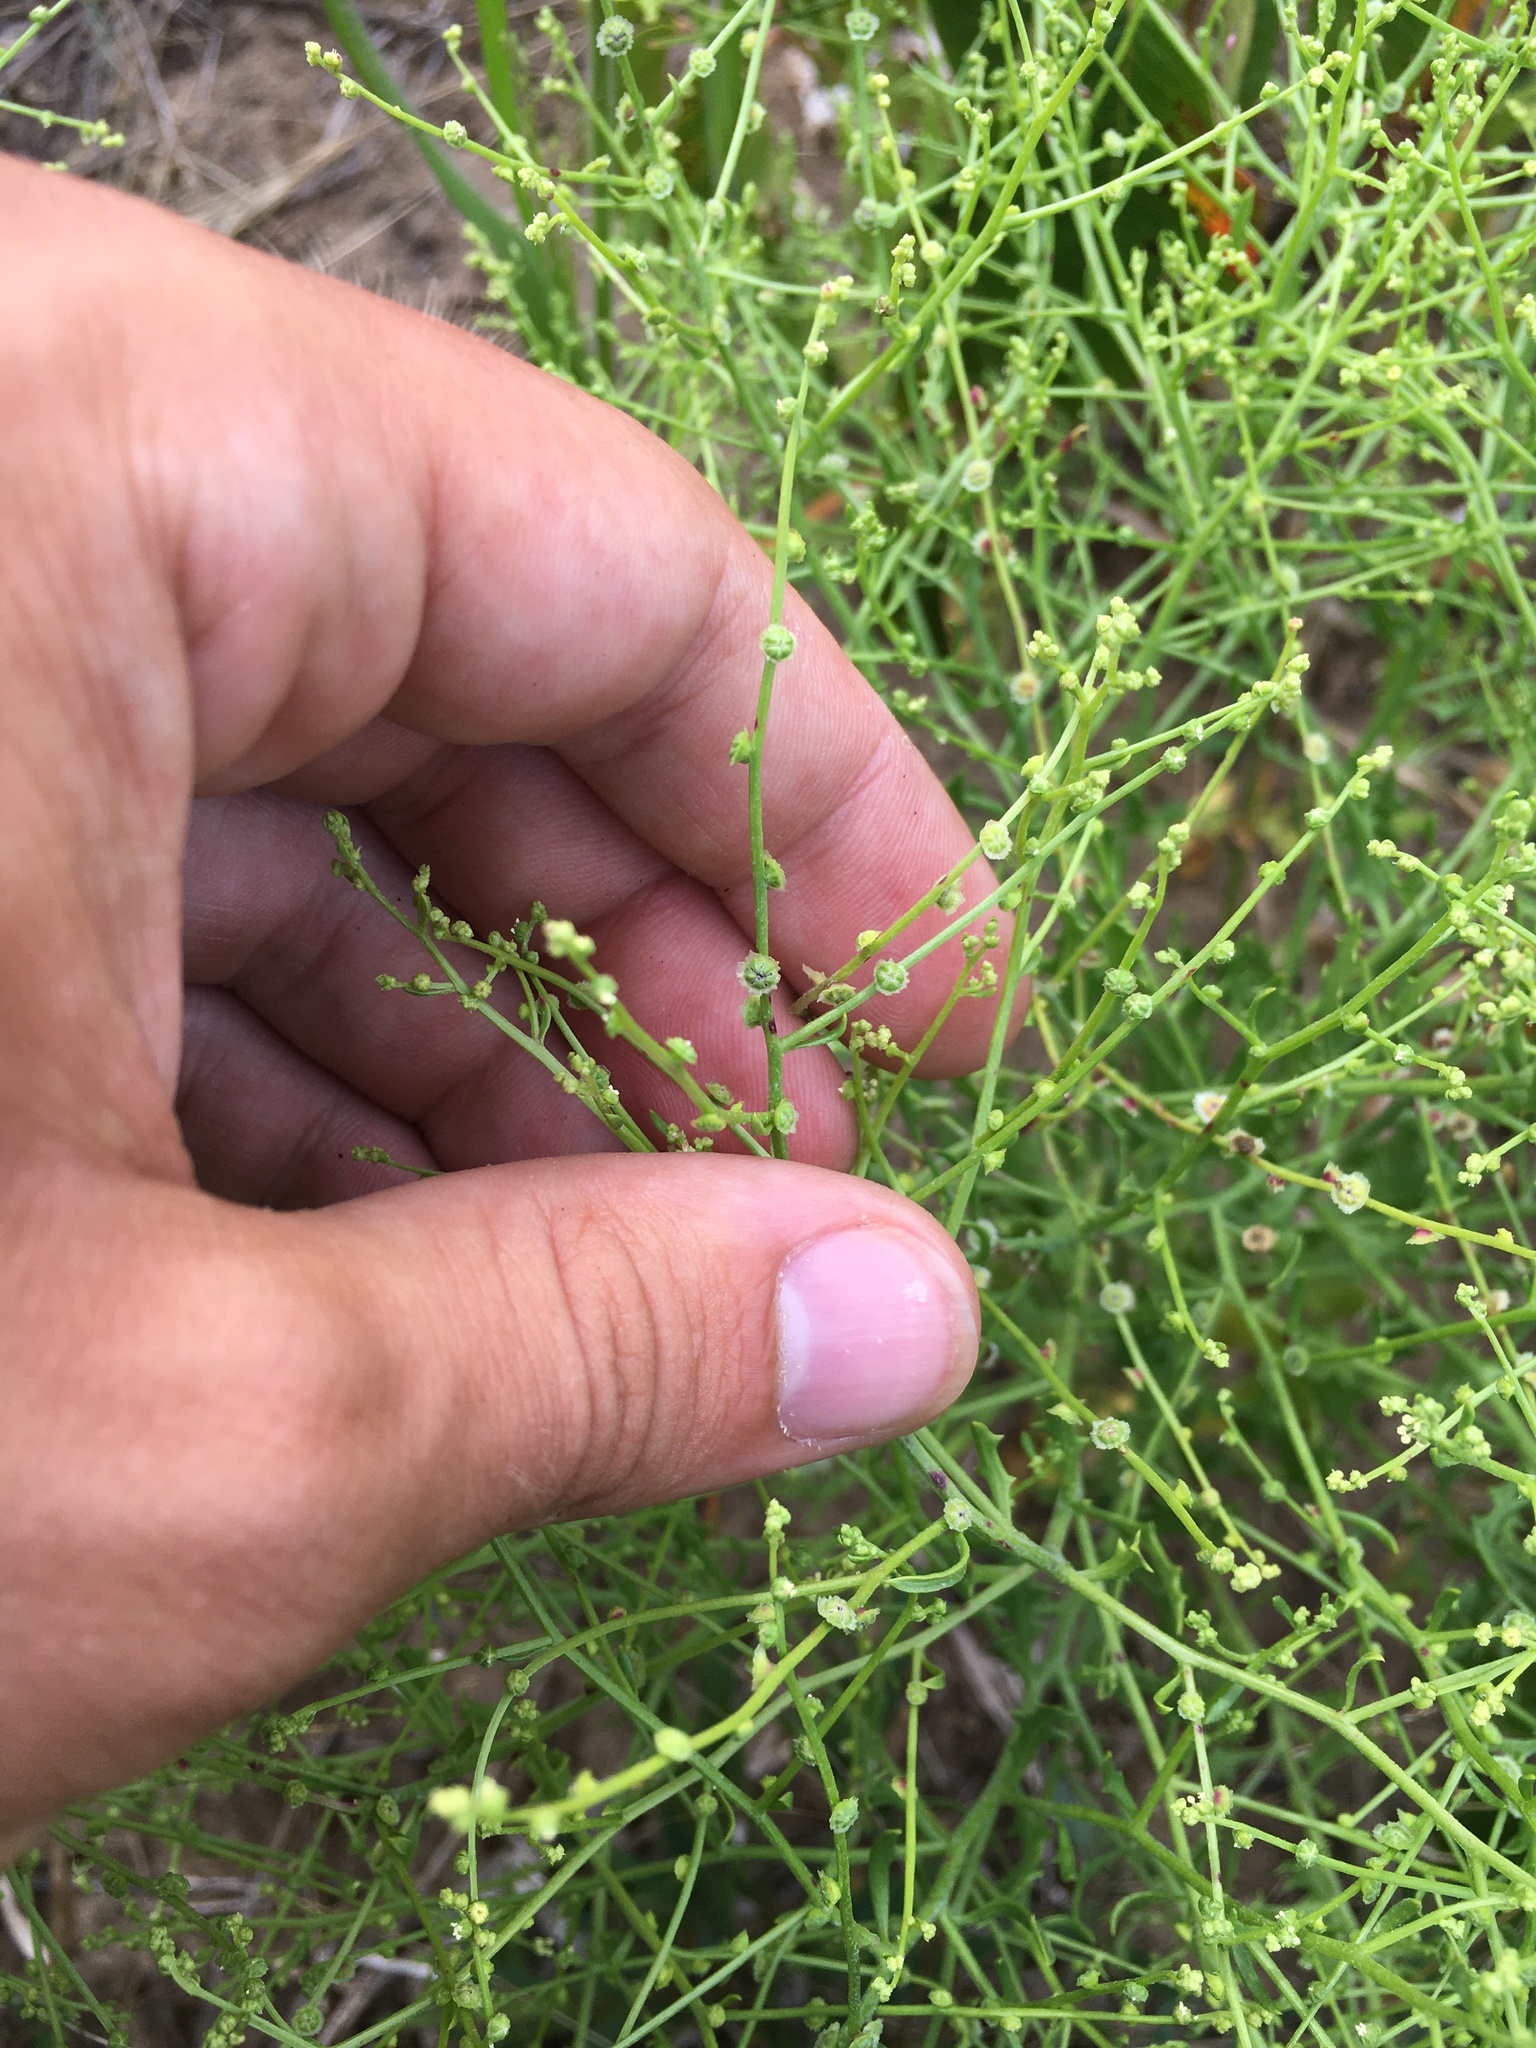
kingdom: Plantae
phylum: Tracheophyta
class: Magnoliopsida
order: Caryophyllales
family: Amaranthaceae
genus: Dysphania
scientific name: Dysphania atriplicifolia
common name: Plains tumbleweed
